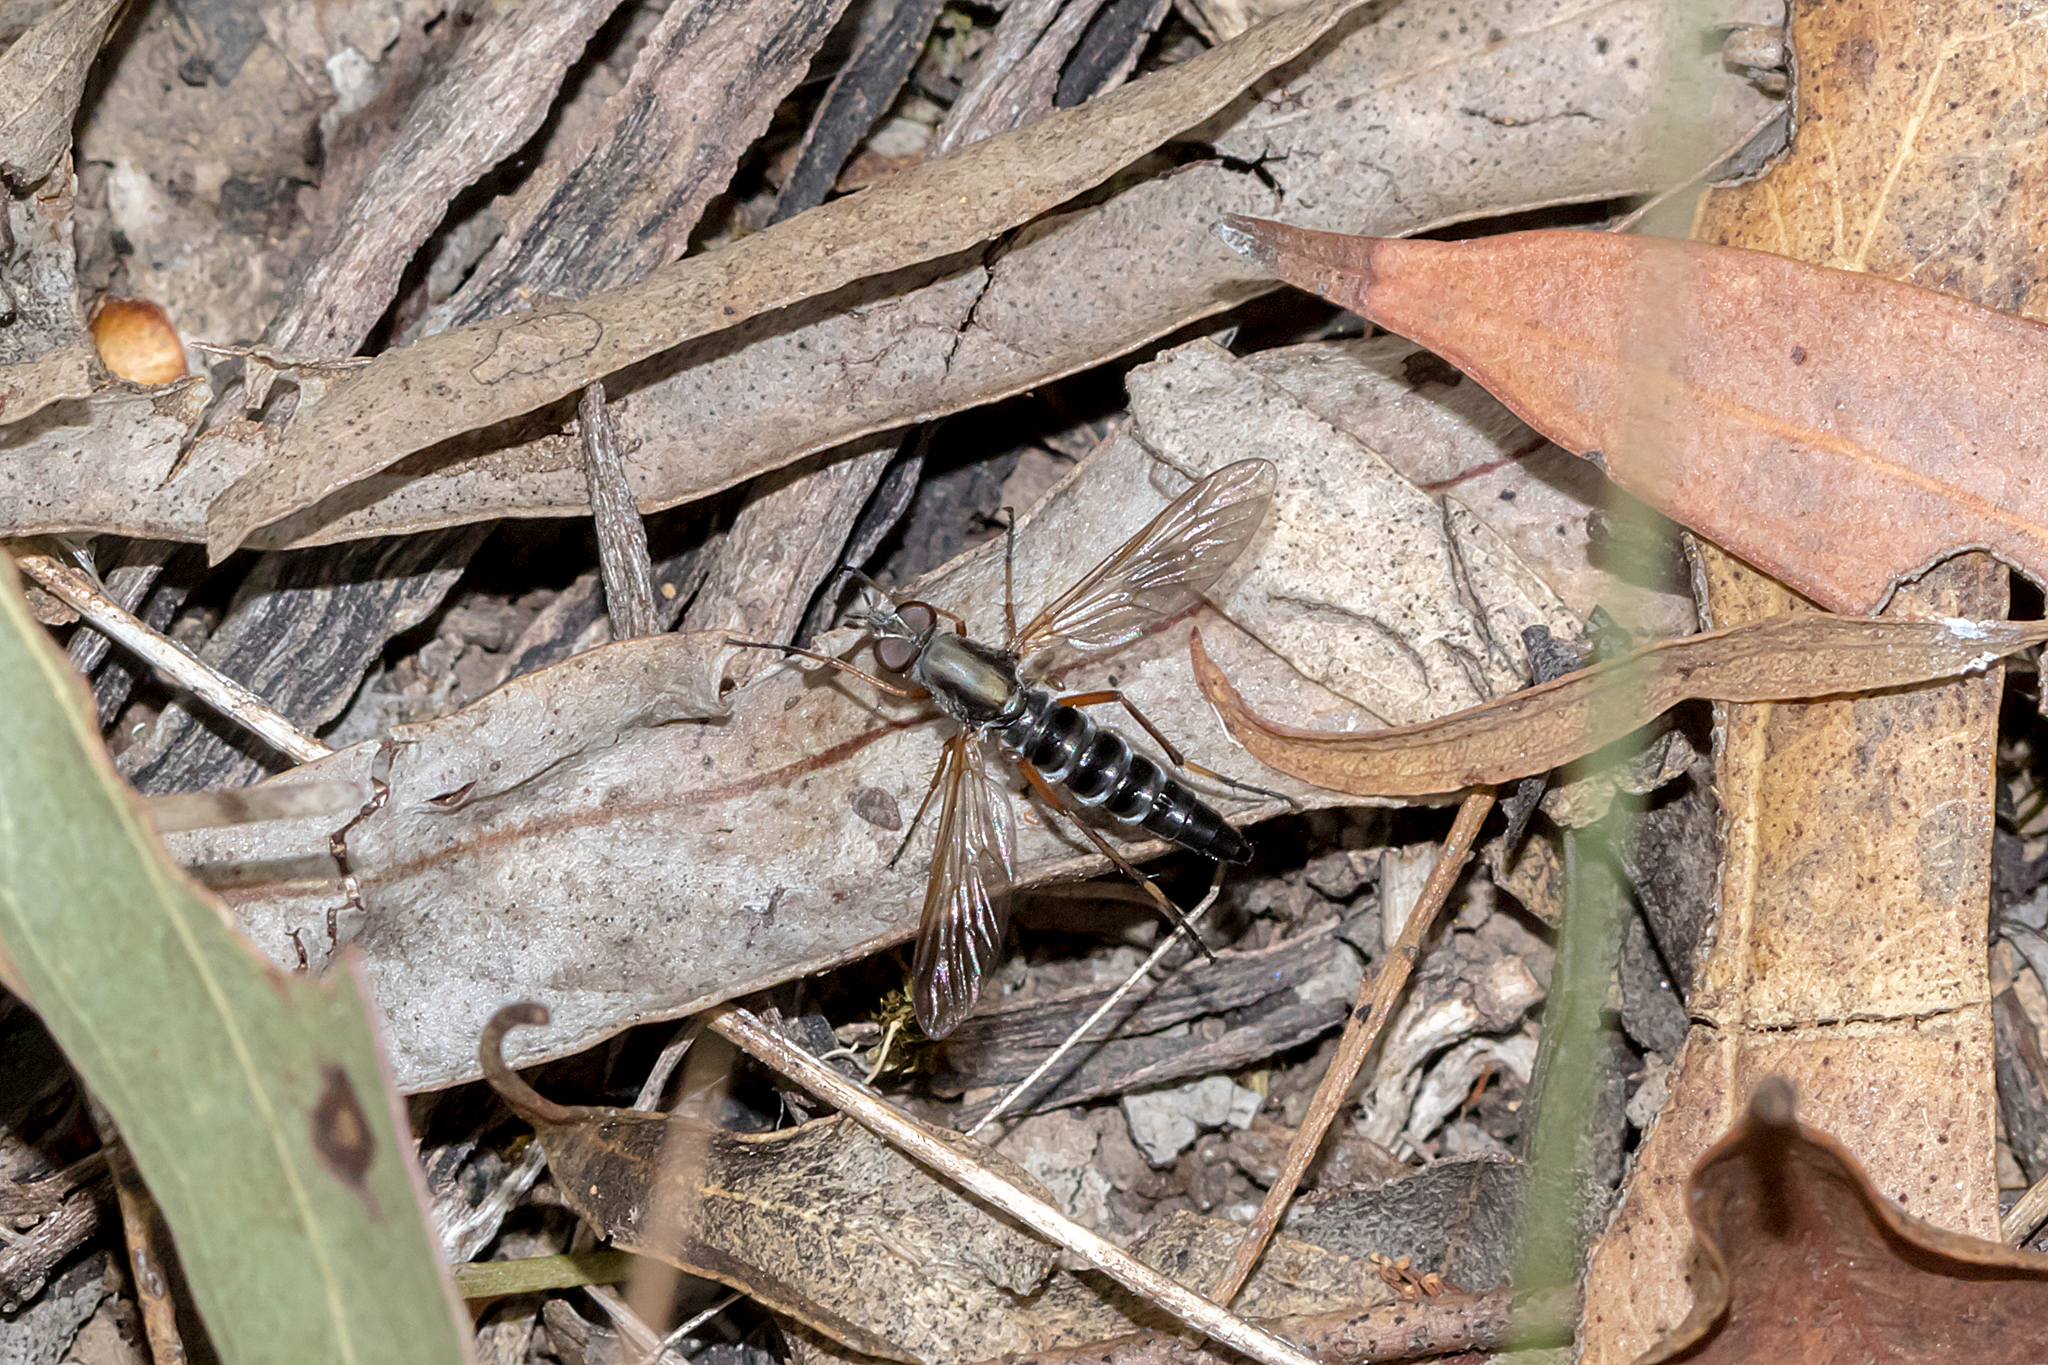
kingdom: Animalia
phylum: Arthropoda
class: Insecta
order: Diptera
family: Therevidae
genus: Taenogerella
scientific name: Taenogerella platina
